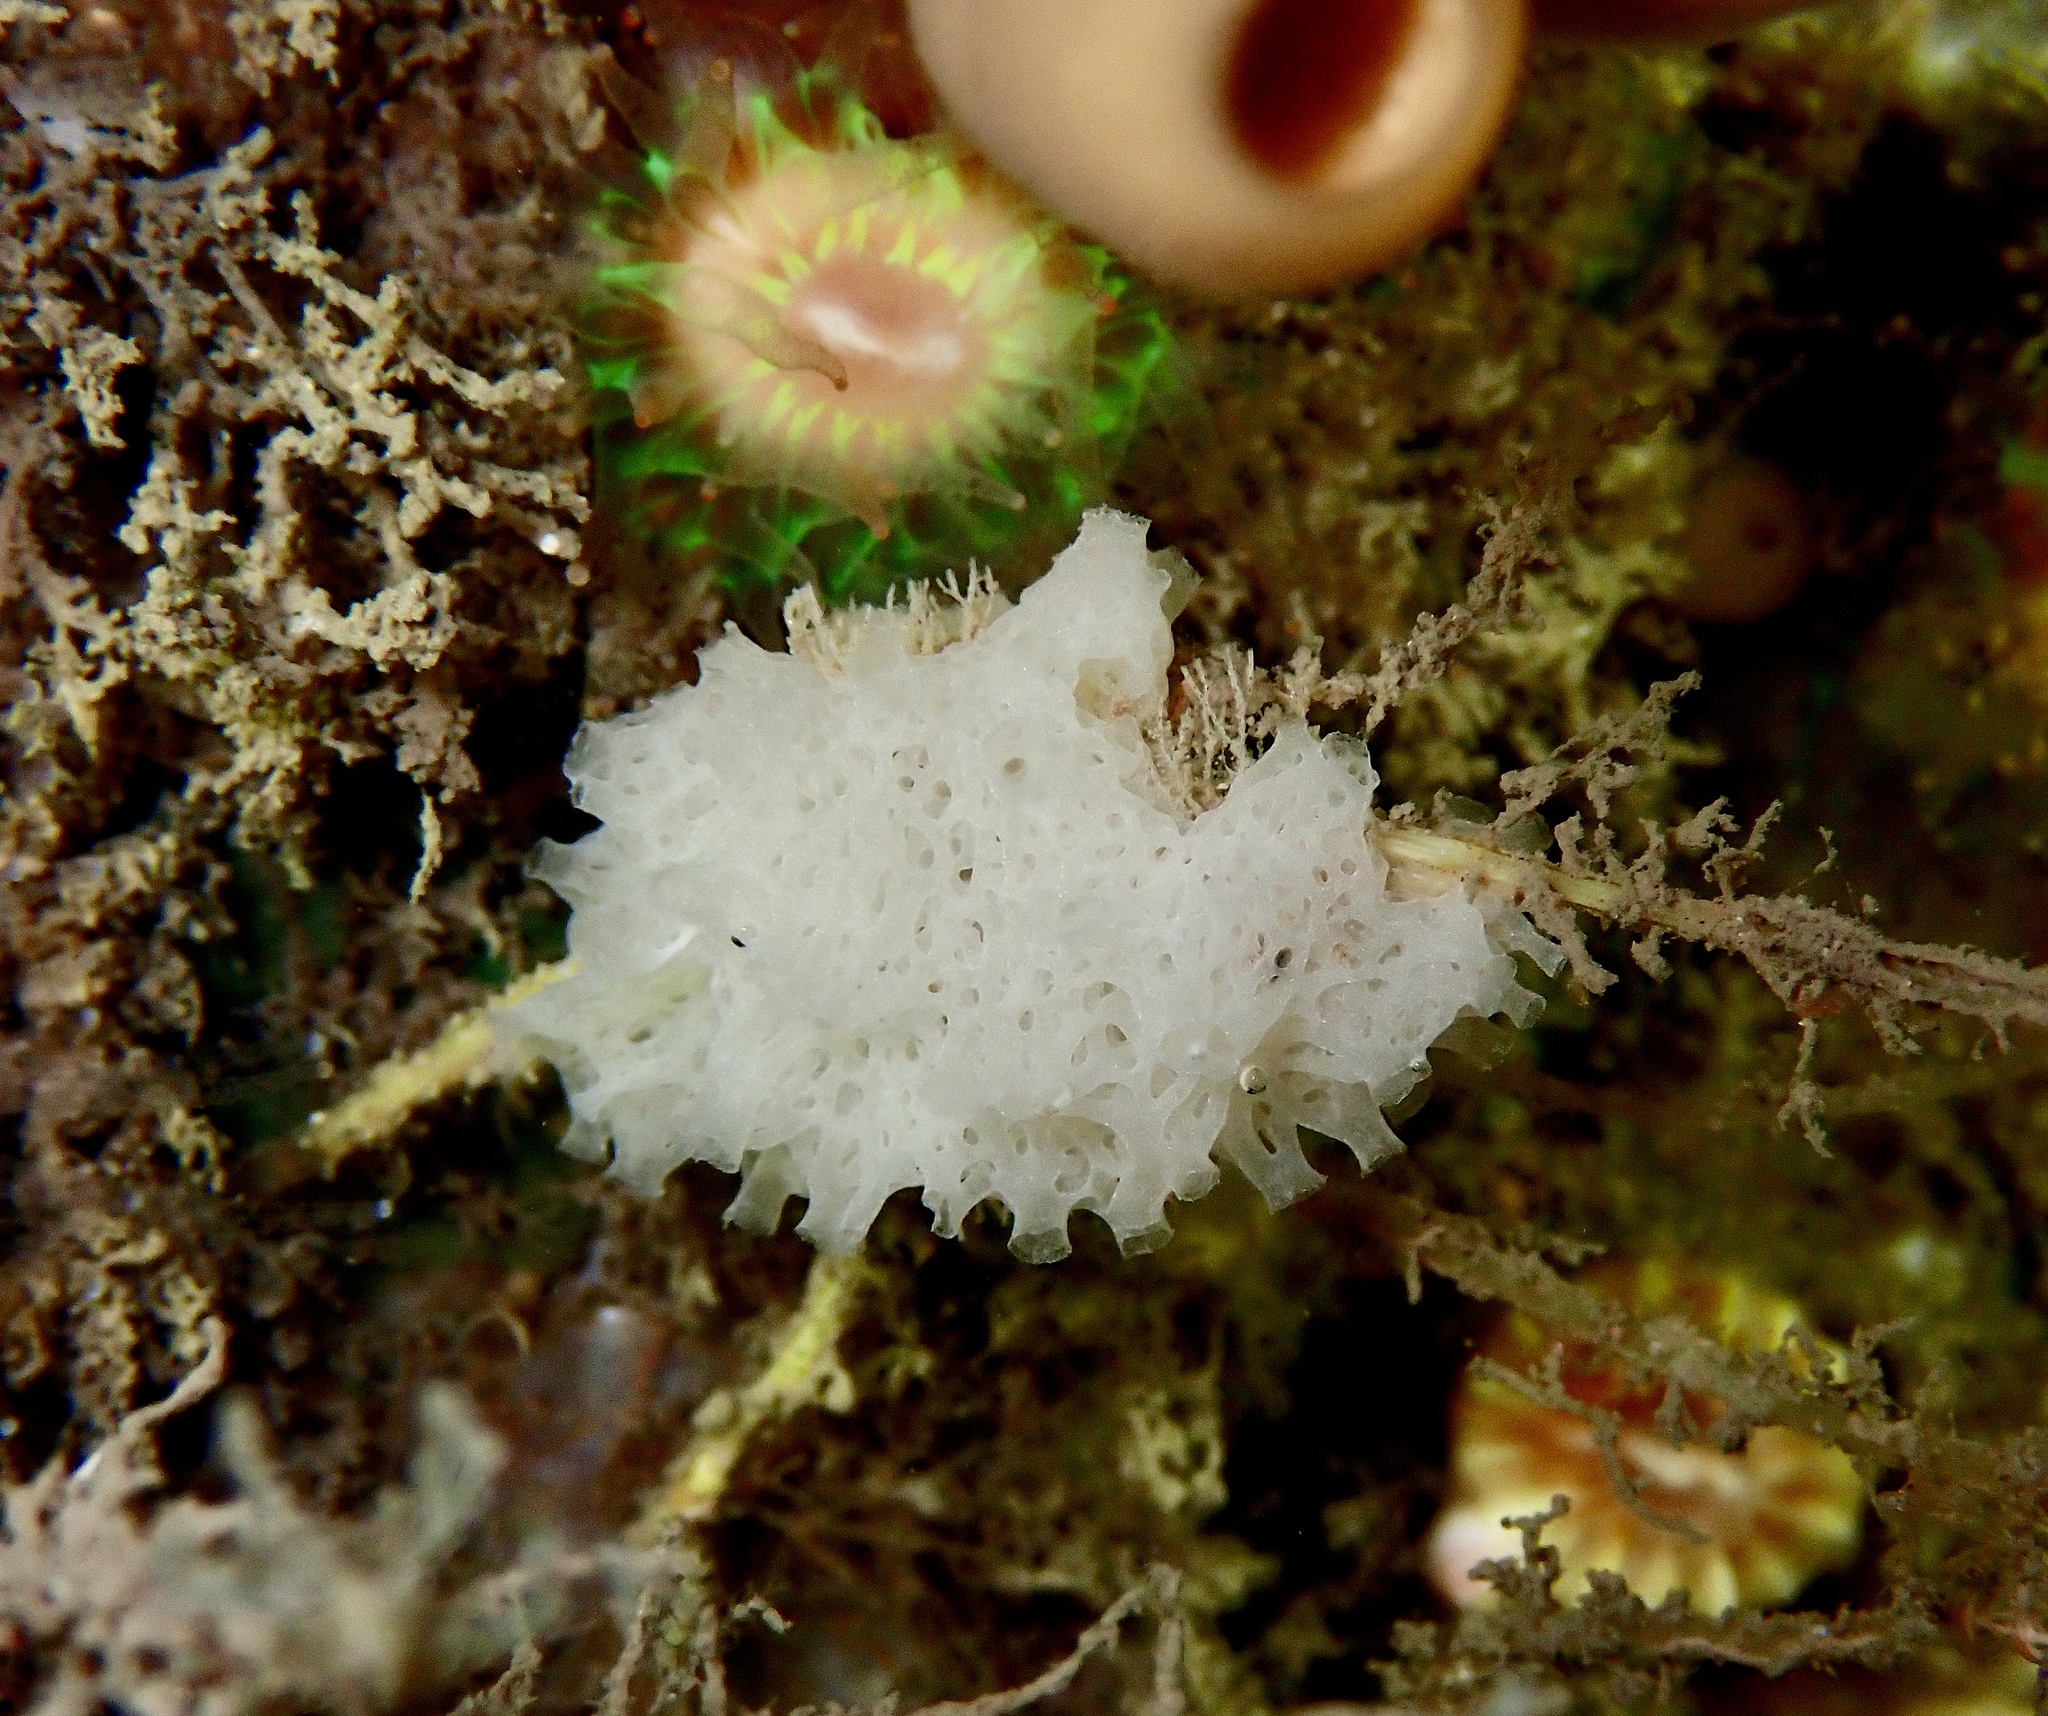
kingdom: Animalia
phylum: Porifera
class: Calcarea
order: Clathrinida
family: Clathrinidae
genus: Clathrina
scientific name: Clathrina coriacea
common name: White clathrina
